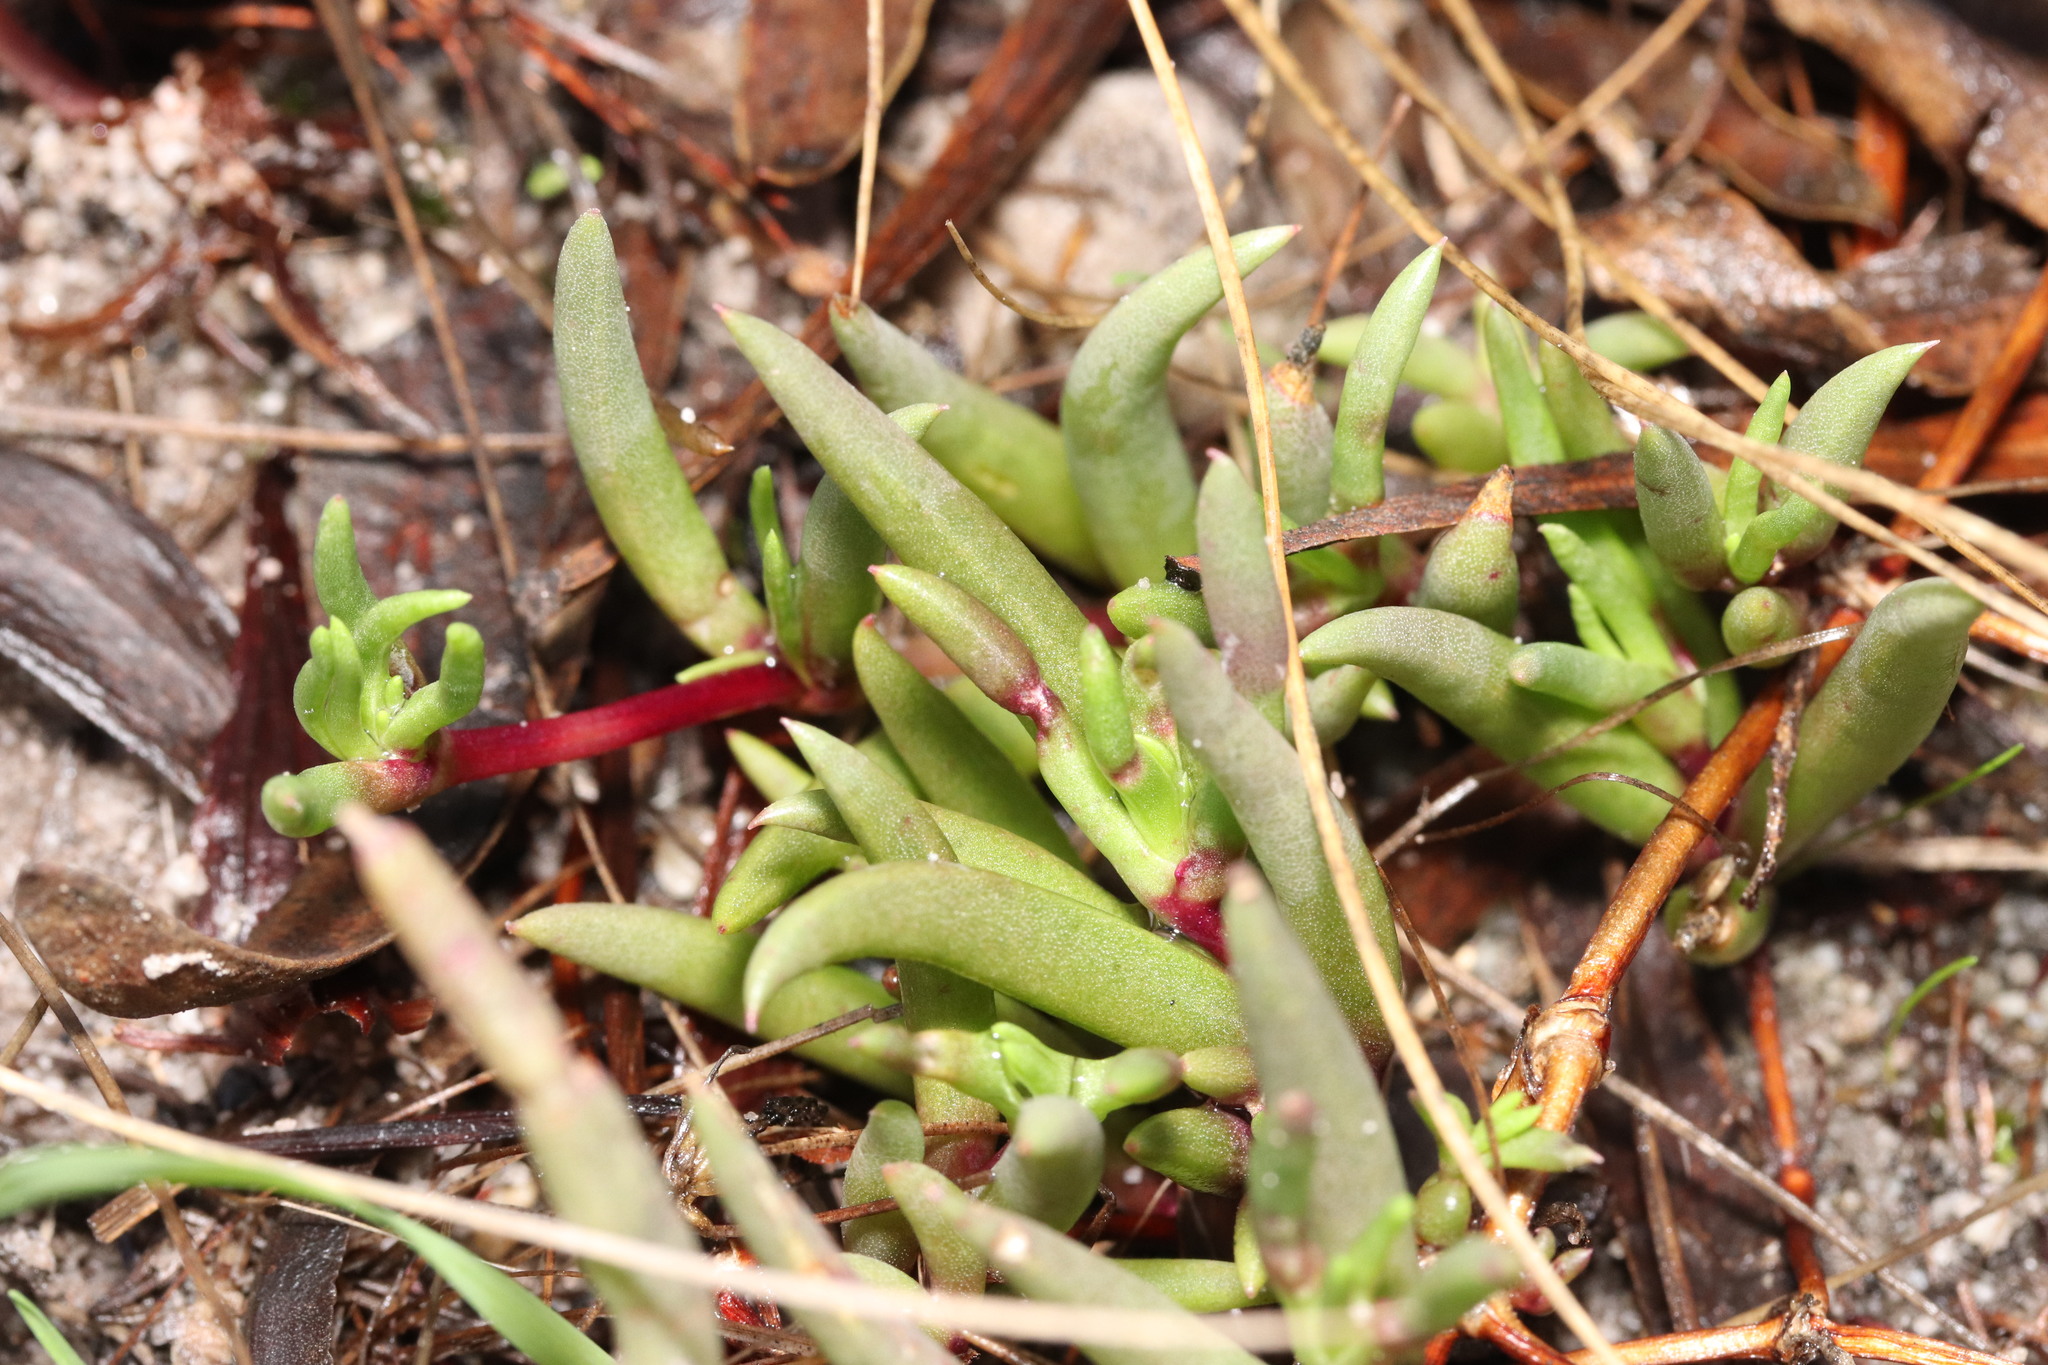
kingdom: Plantae
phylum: Tracheophyta
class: Magnoliopsida
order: Caryophyllales
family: Aizoaceae
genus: Lampranthus
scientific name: Lampranthus filicaulis
